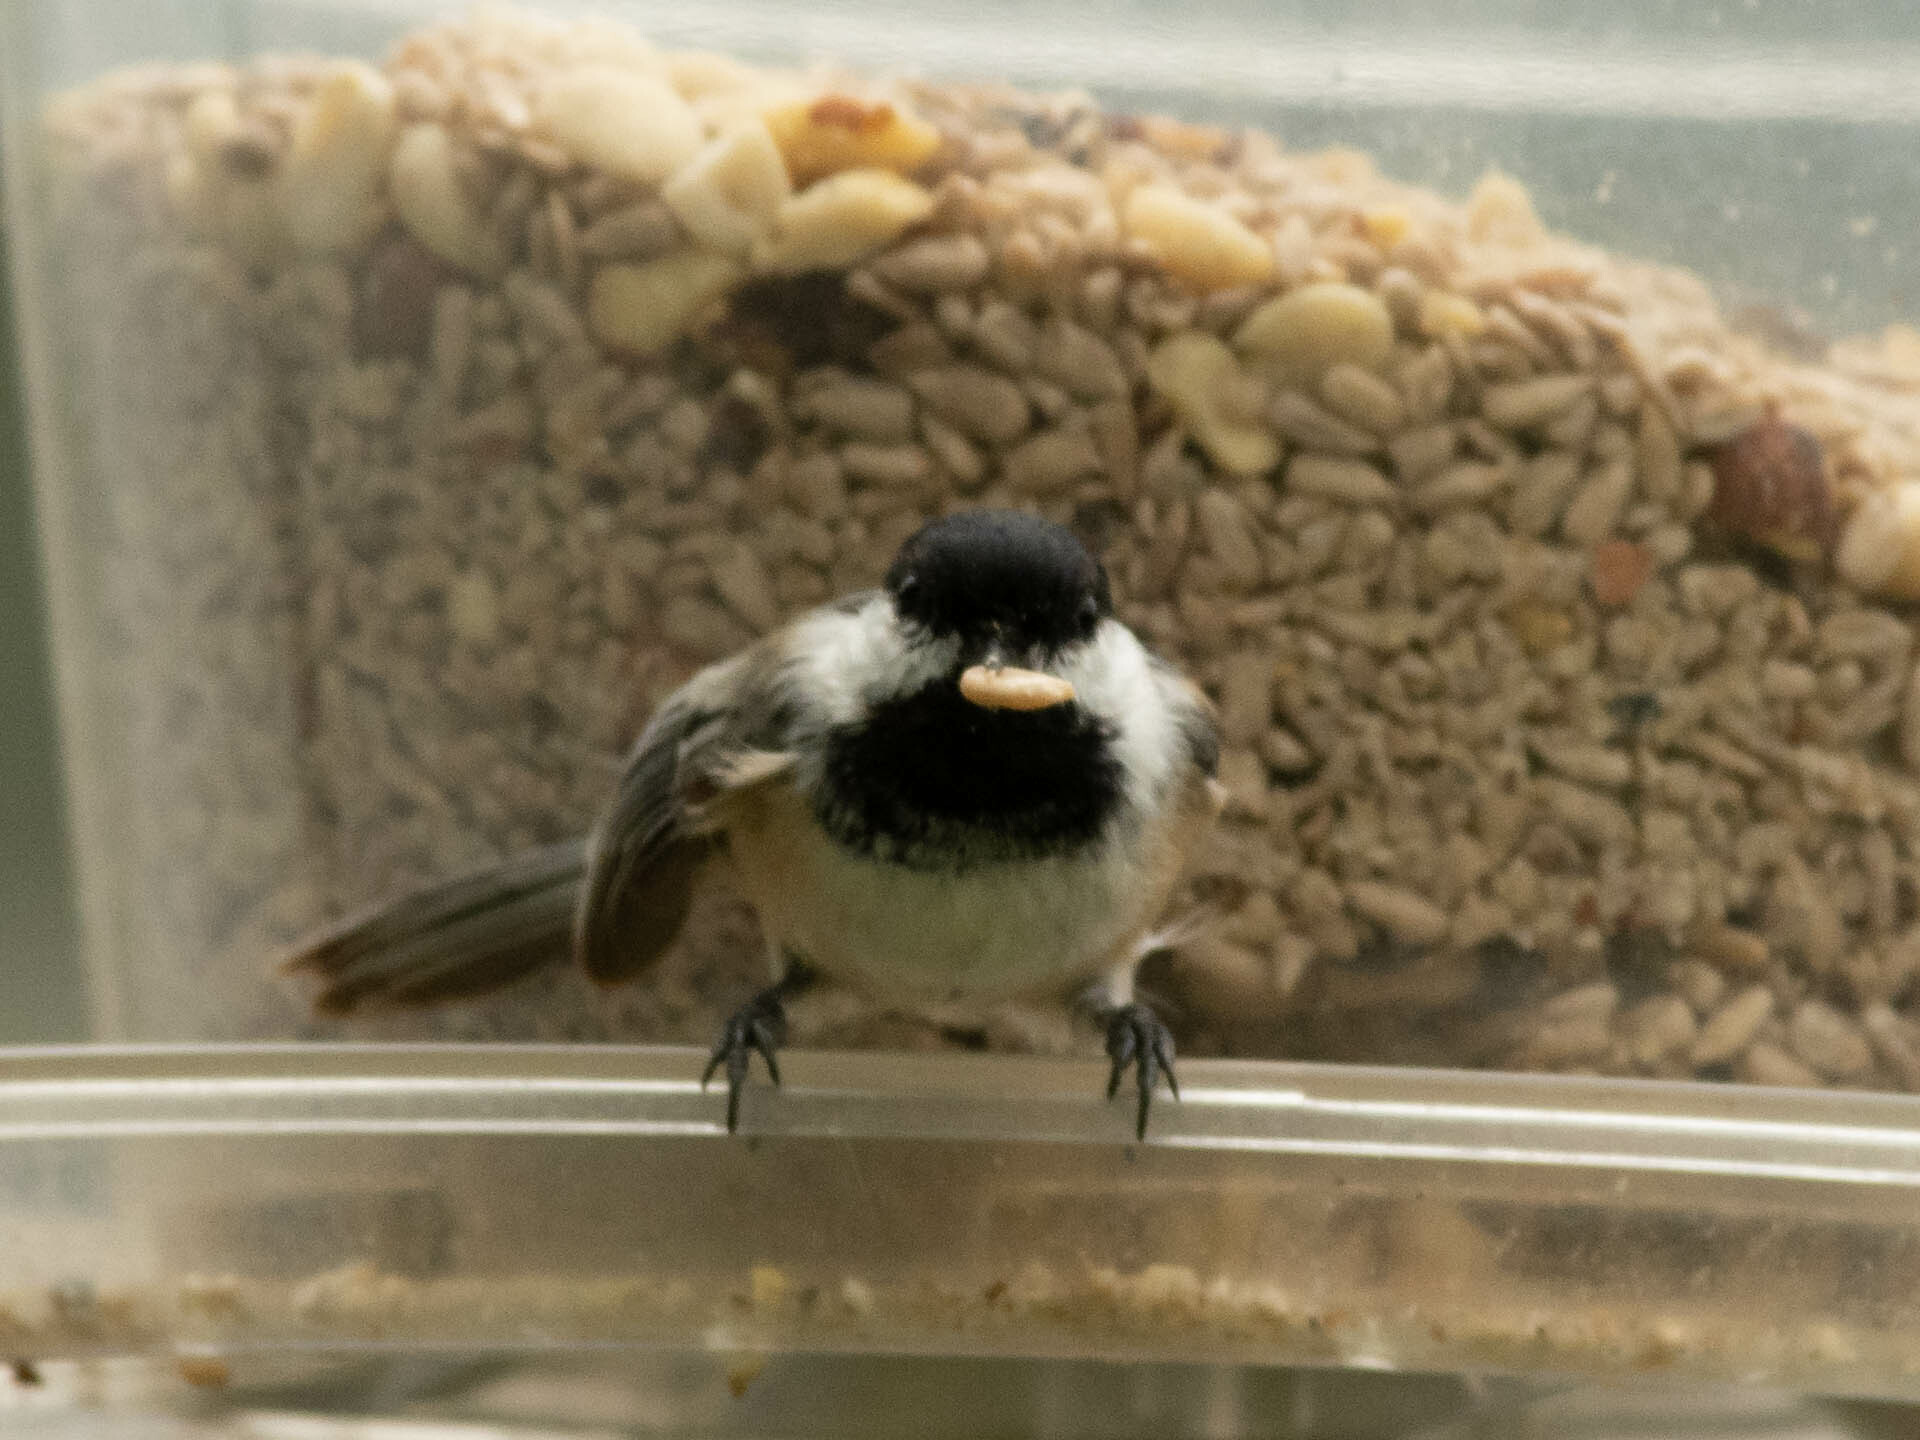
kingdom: Animalia
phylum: Chordata
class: Aves
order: Passeriformes
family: Paridae
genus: Poecile
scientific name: Poecile atricapillus
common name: Black-capped chickadee
